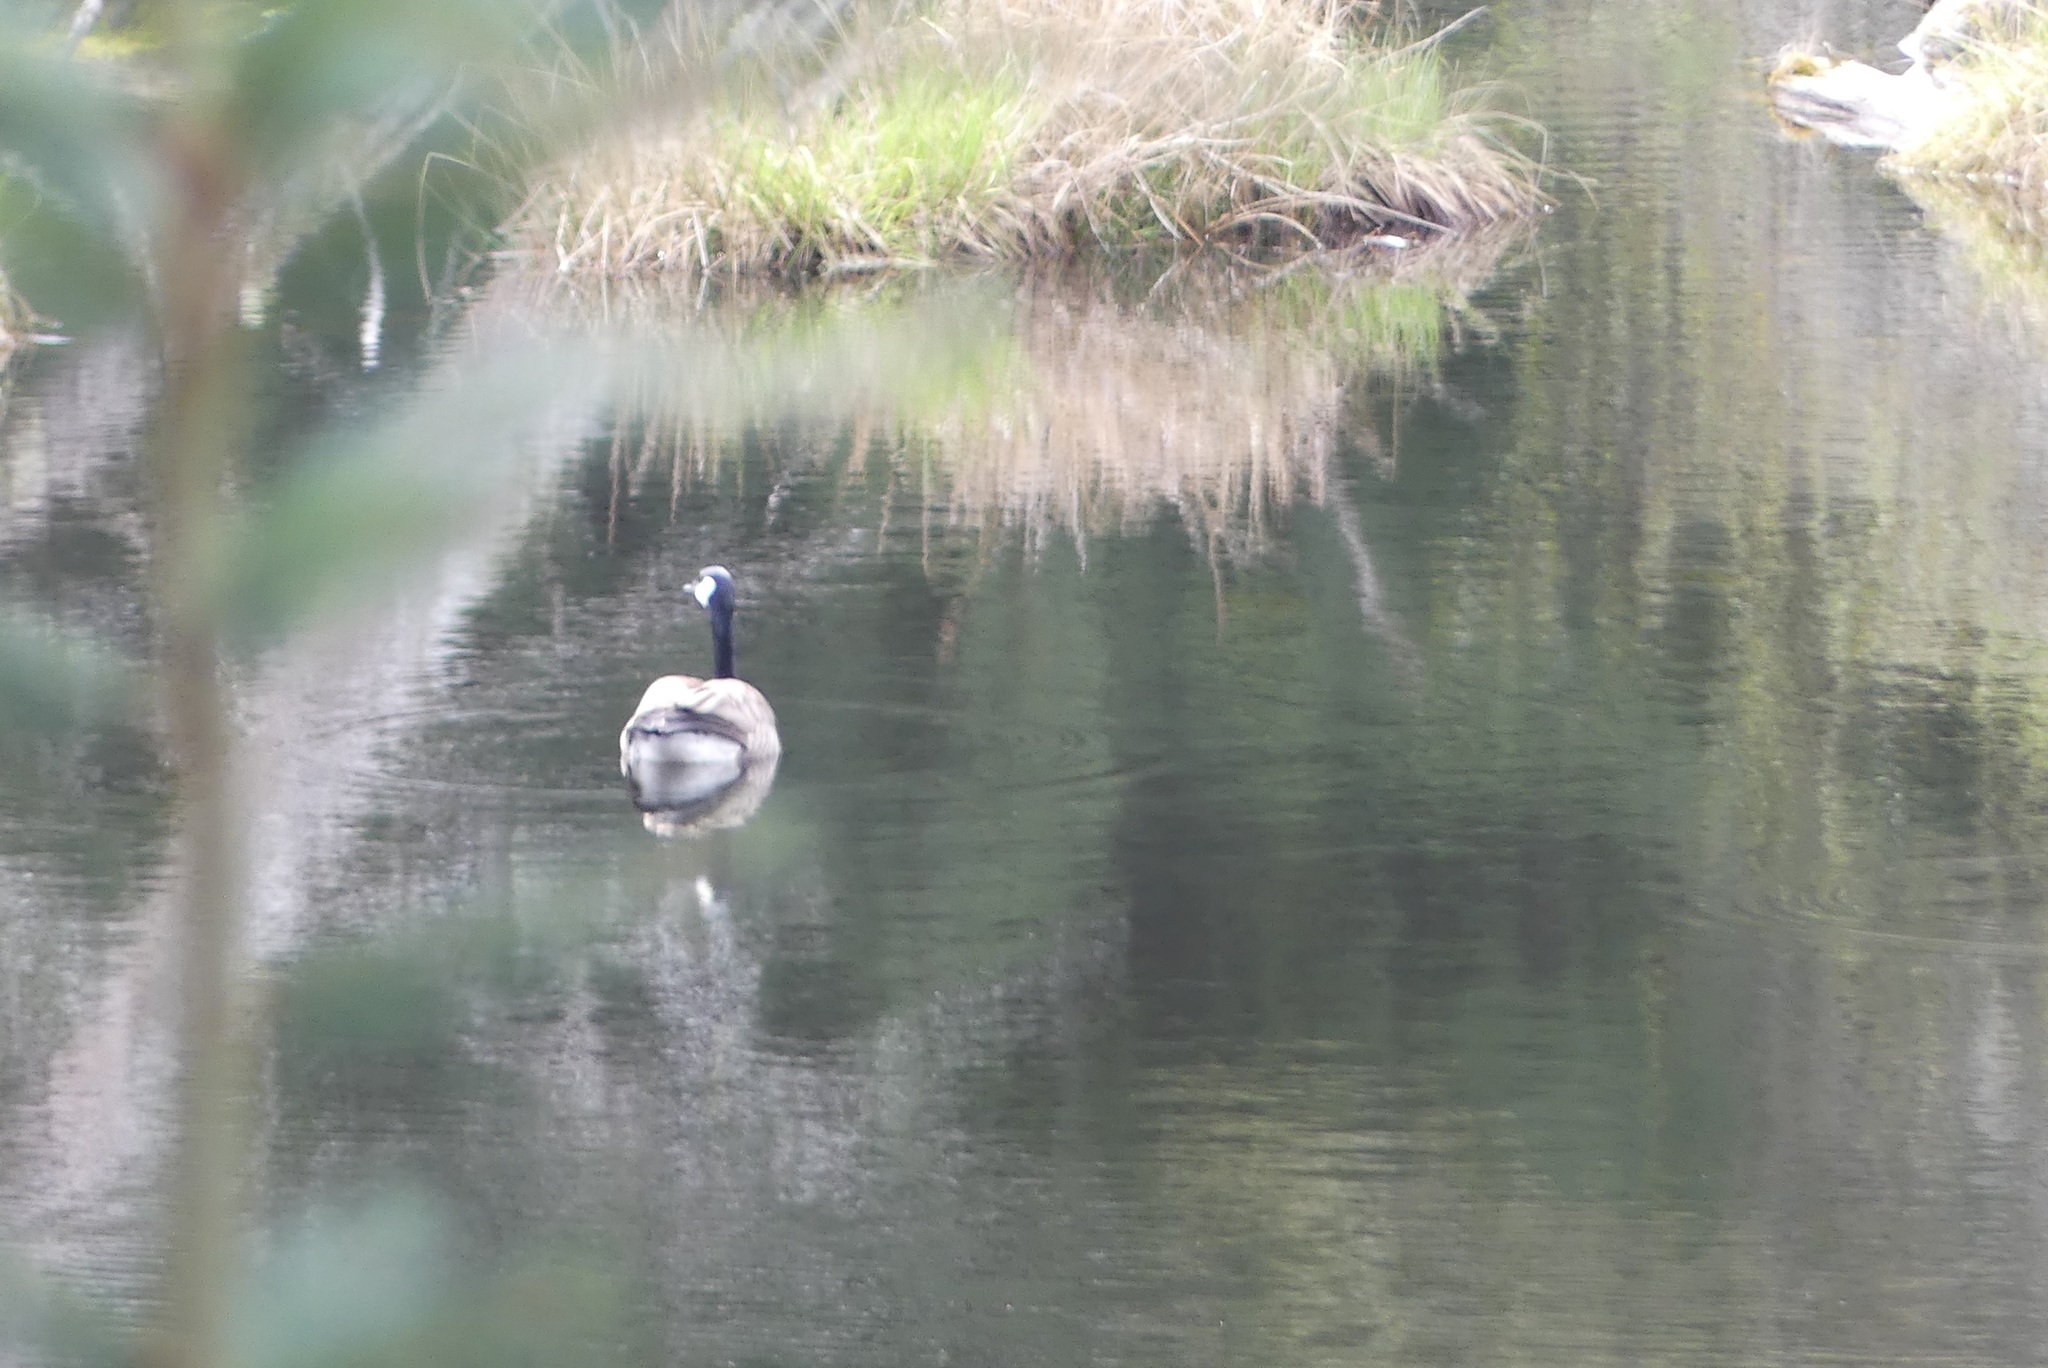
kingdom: Animalia
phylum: Chordata
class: Aves
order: Anseriformes
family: Anatidae
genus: Branta
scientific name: Branta canadensis
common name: Canada goose
